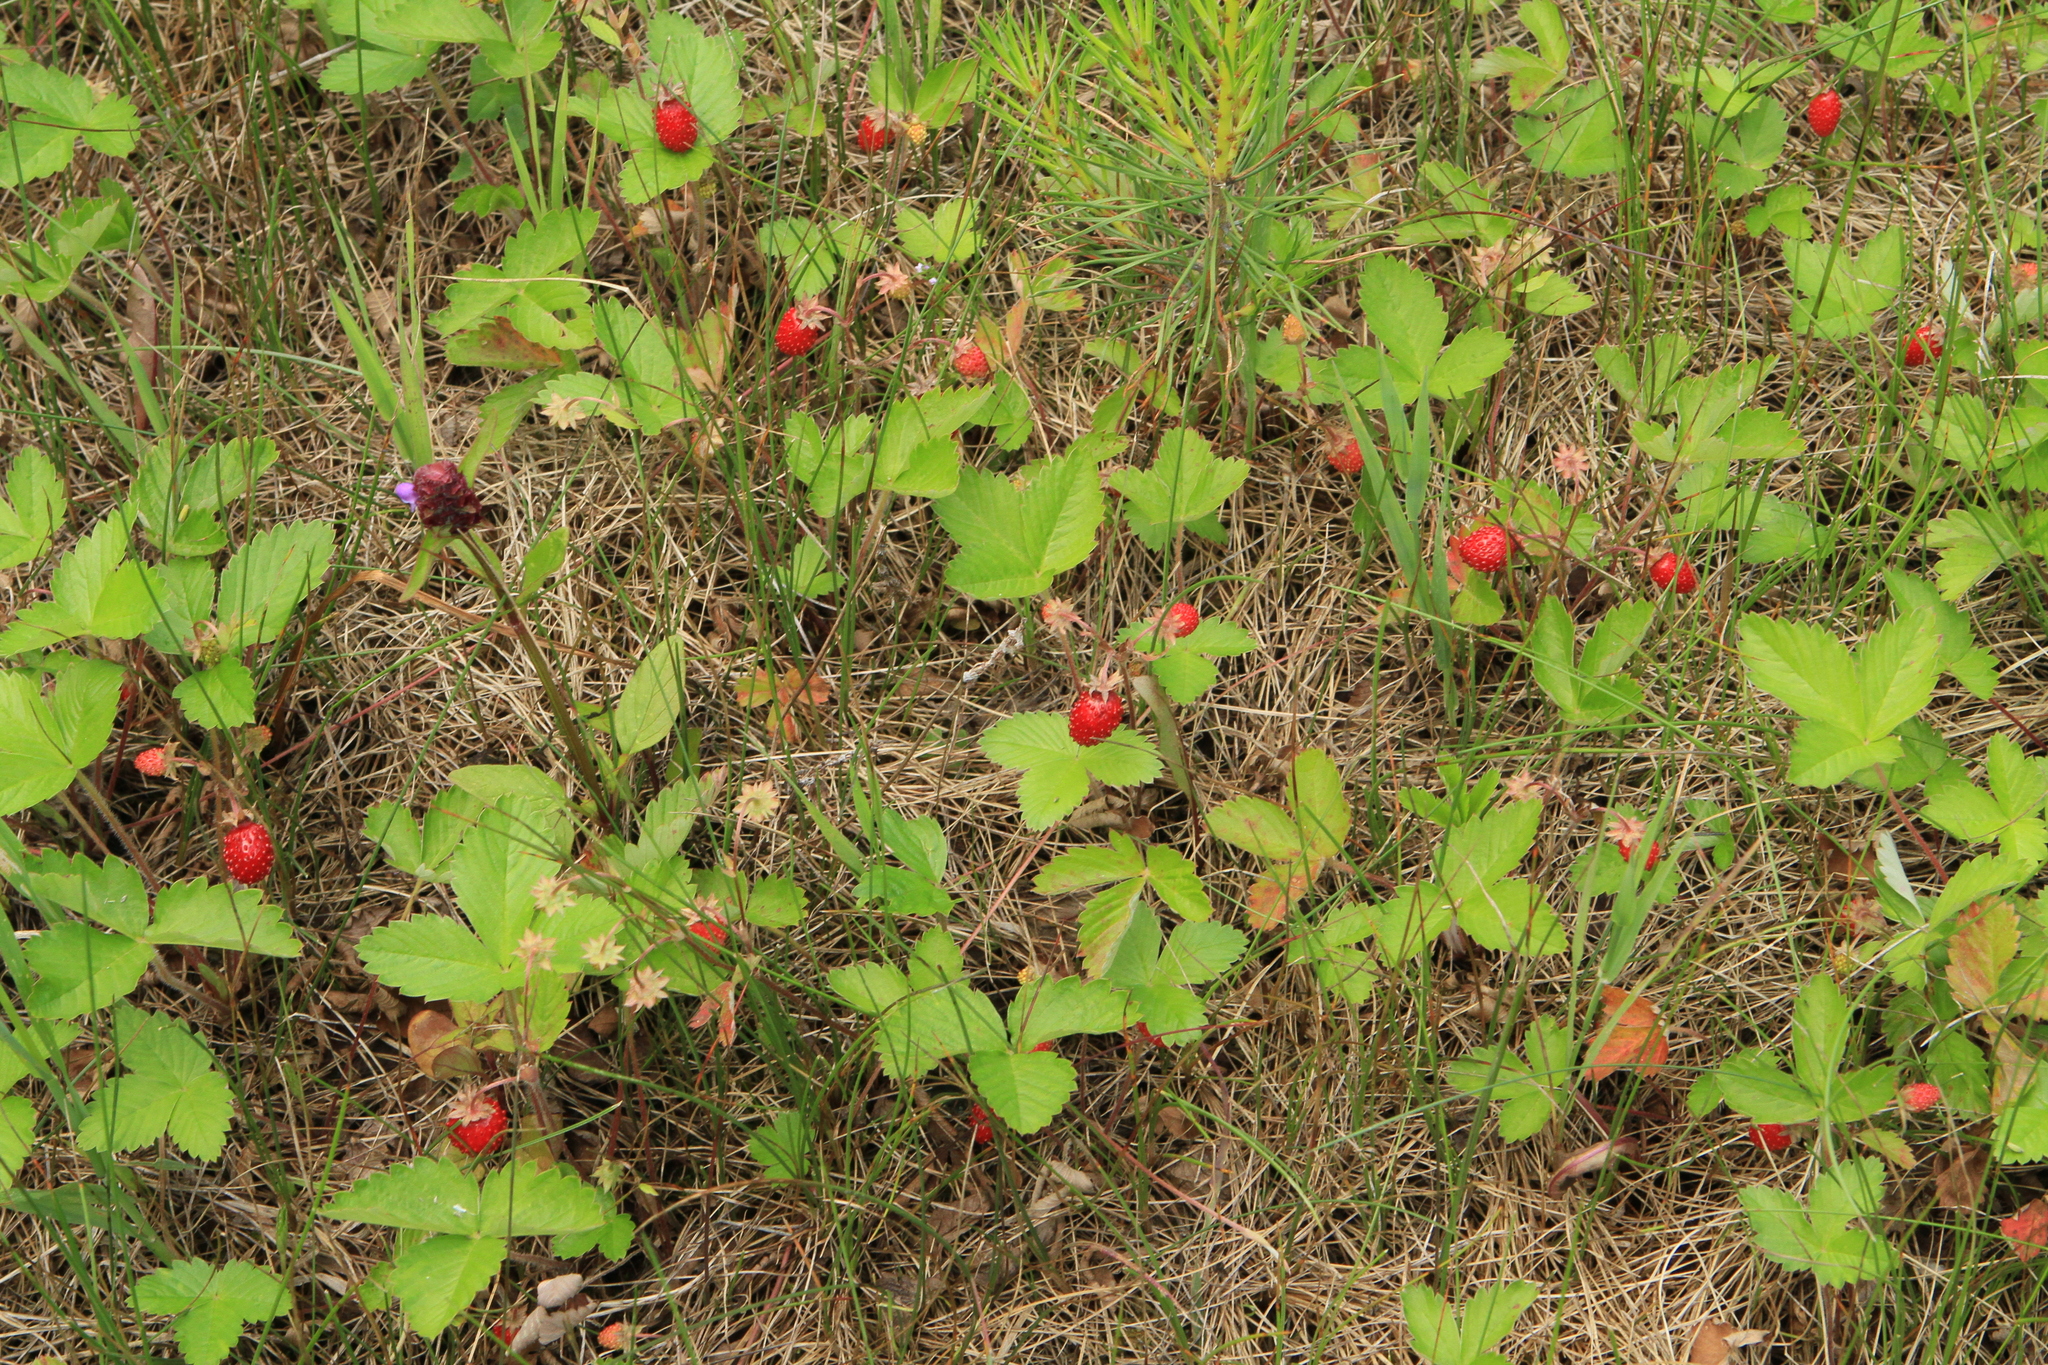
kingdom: Plantae
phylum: Tracheophyta
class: Magnoliopsida
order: Rosales
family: Rosaceae
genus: Fragaria
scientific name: Fragaria vesca
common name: Wild strawberry
